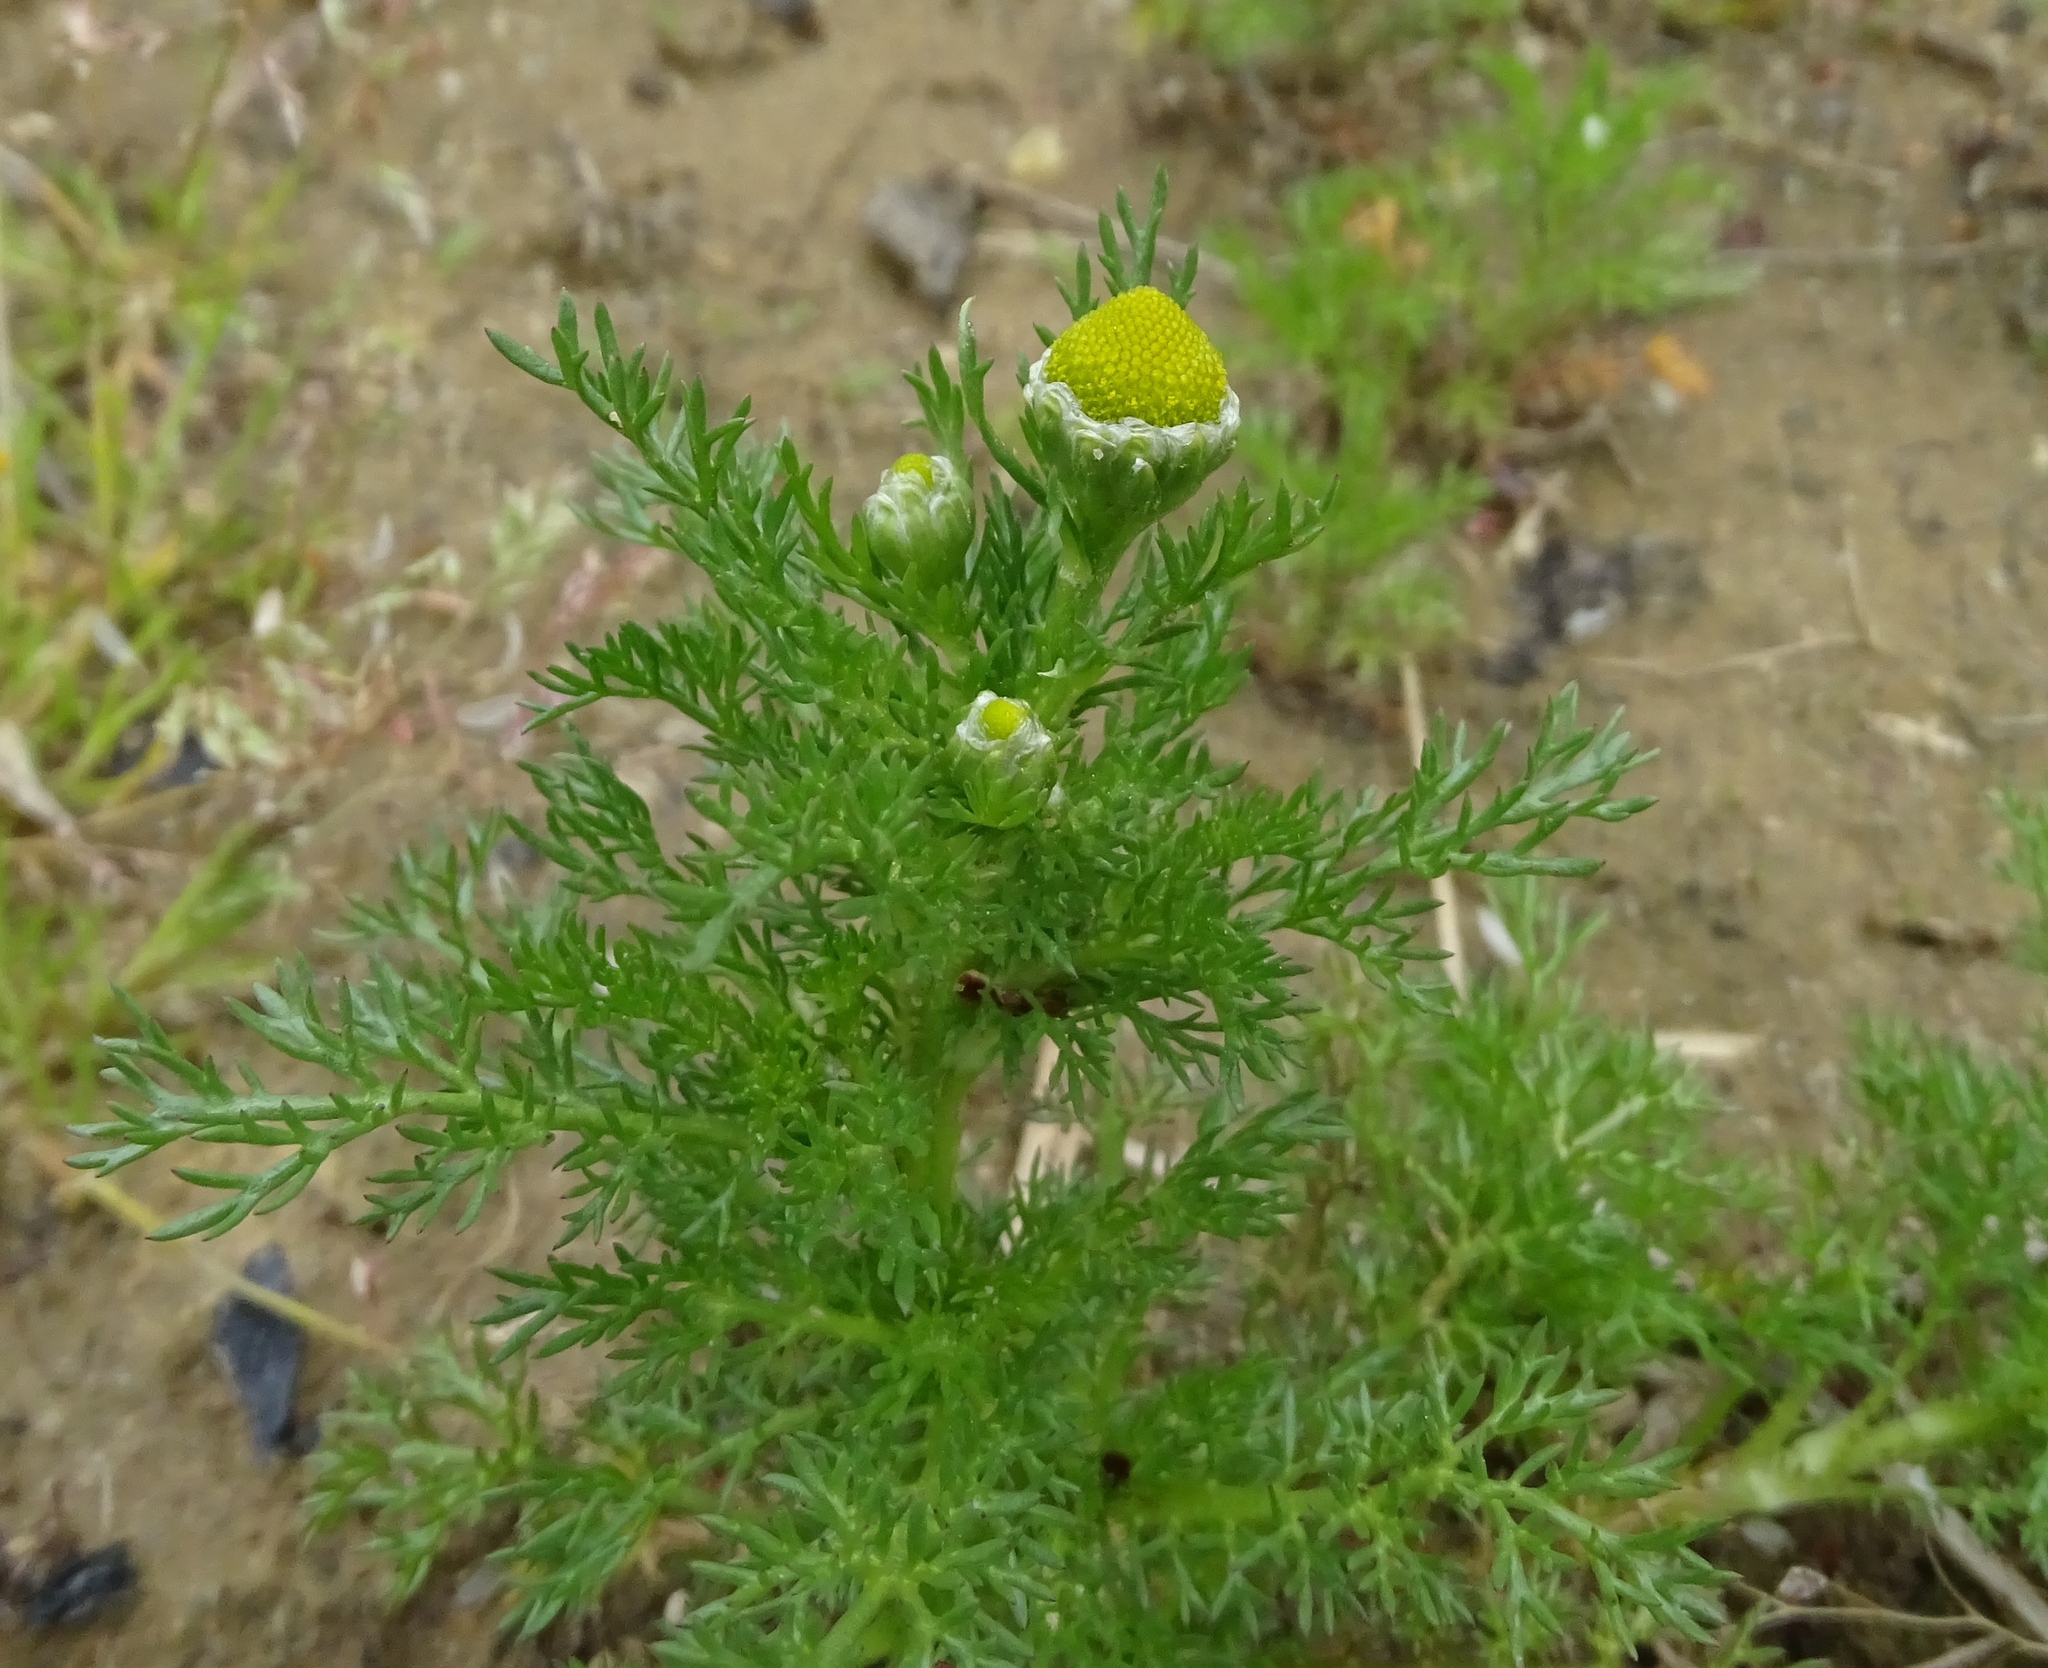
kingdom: Plantae
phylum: Tracheophyta
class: Magnoliopsida
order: Asterales
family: Asteraceae
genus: Matricaria
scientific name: Matricaria discoidea
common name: Disc mayweed
